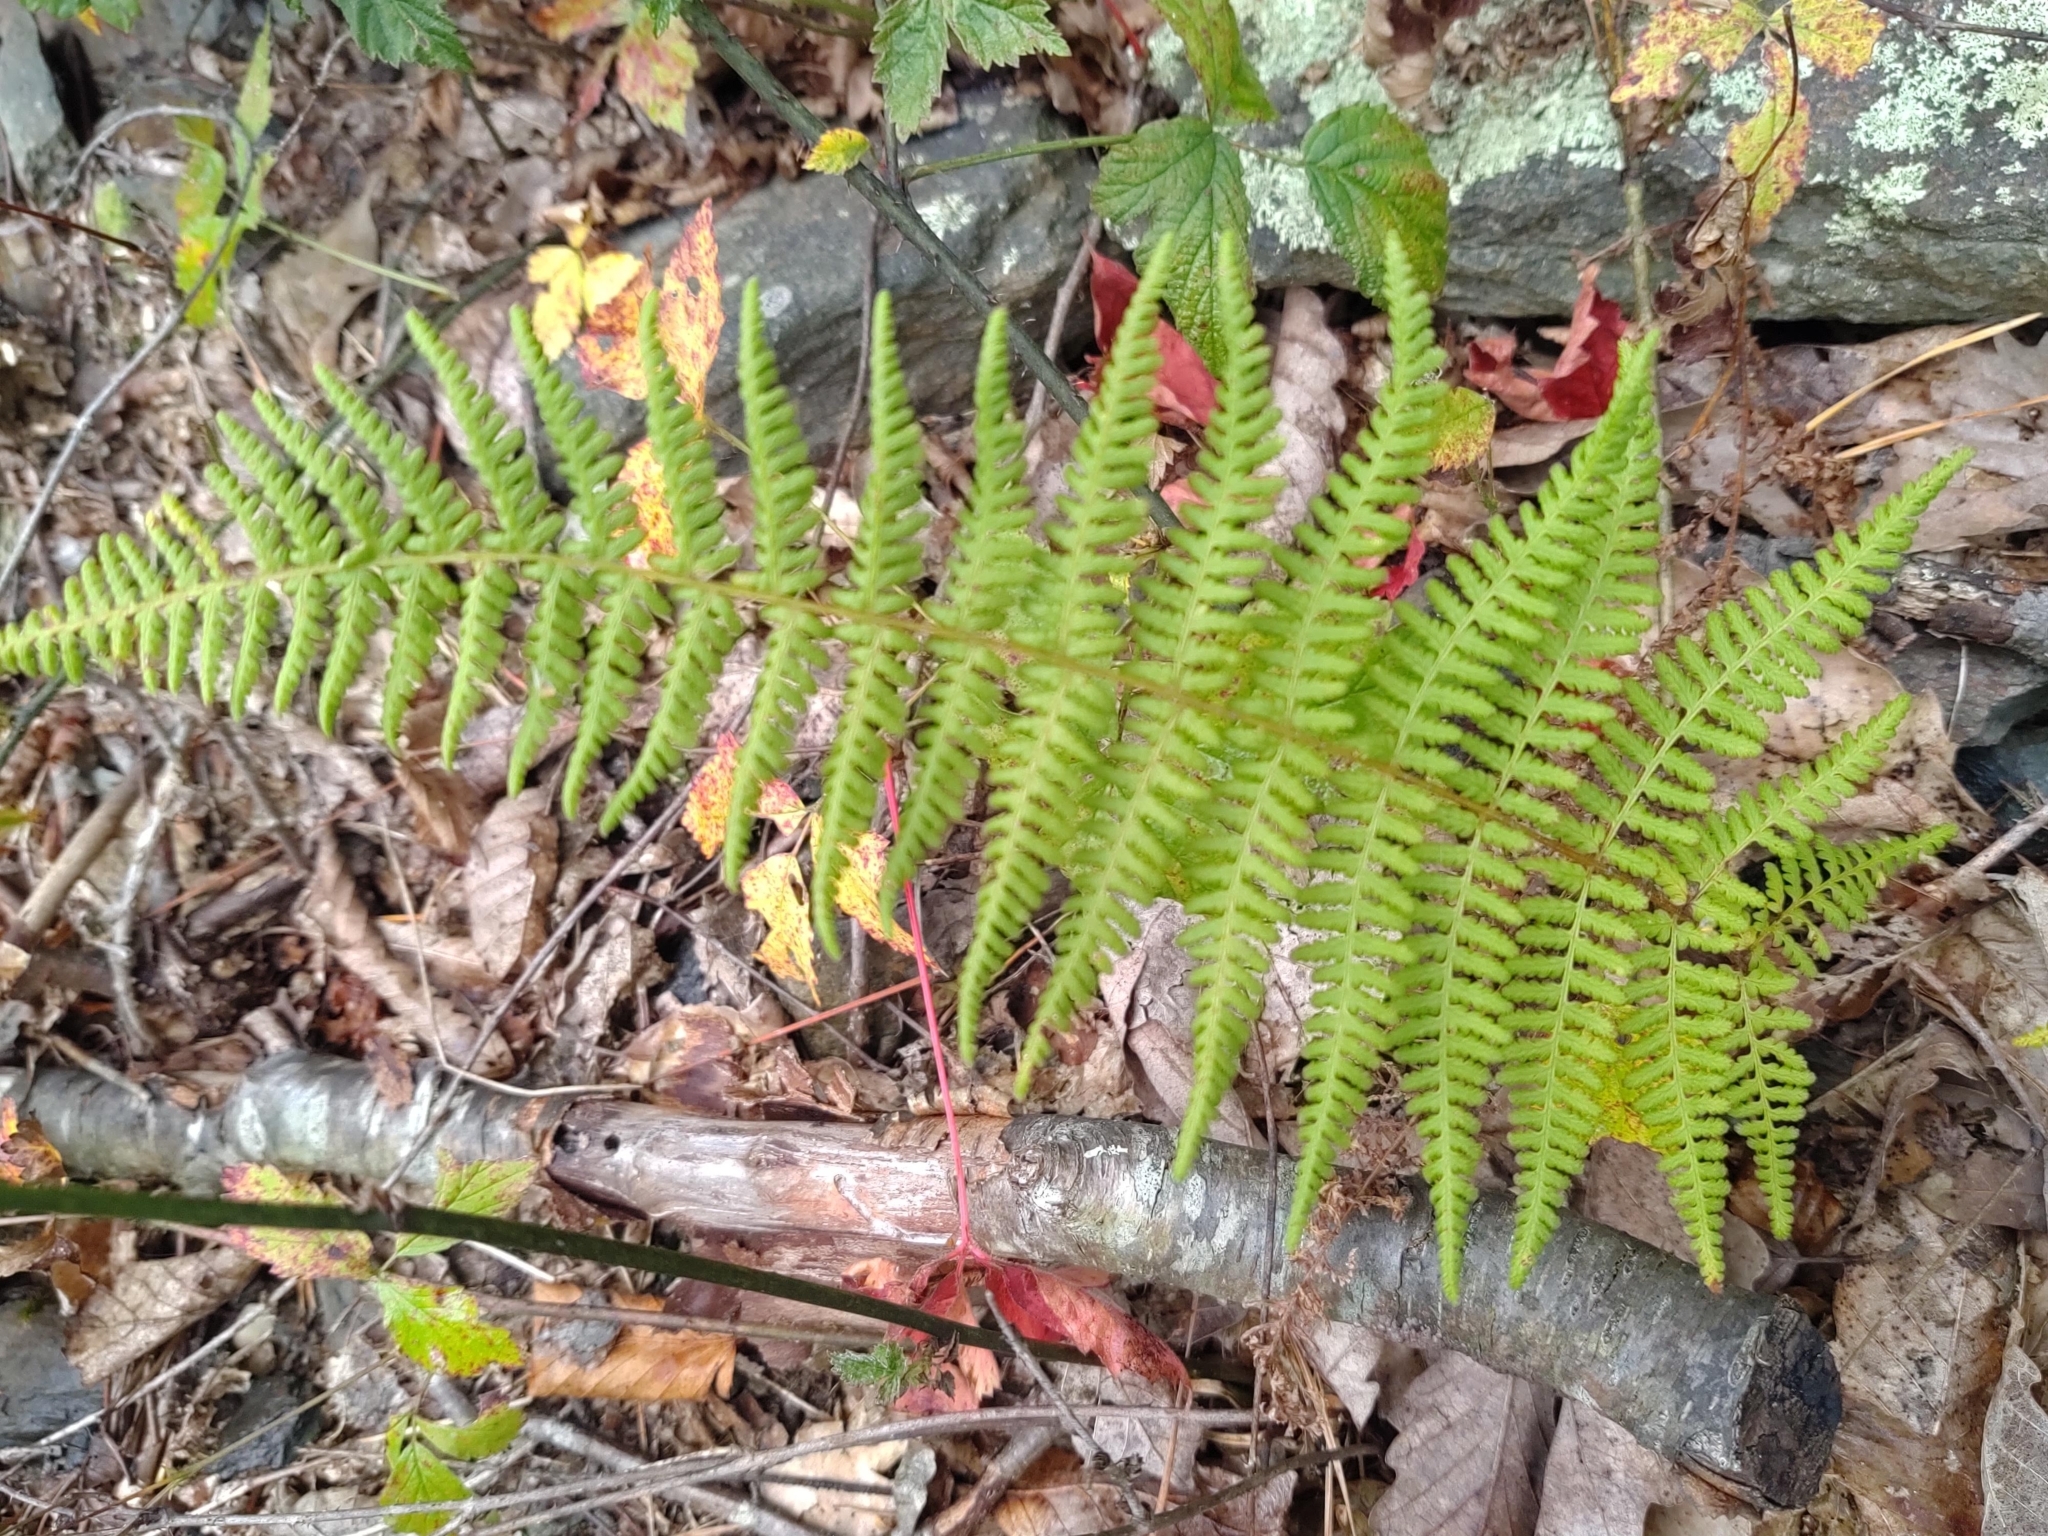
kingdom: Plantae
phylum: Tracheophyta
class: Polypodiopsida
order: Polypodiales
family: Dennstaedtiaceae
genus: Sitobolium
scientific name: Sitobolium punctilobum
